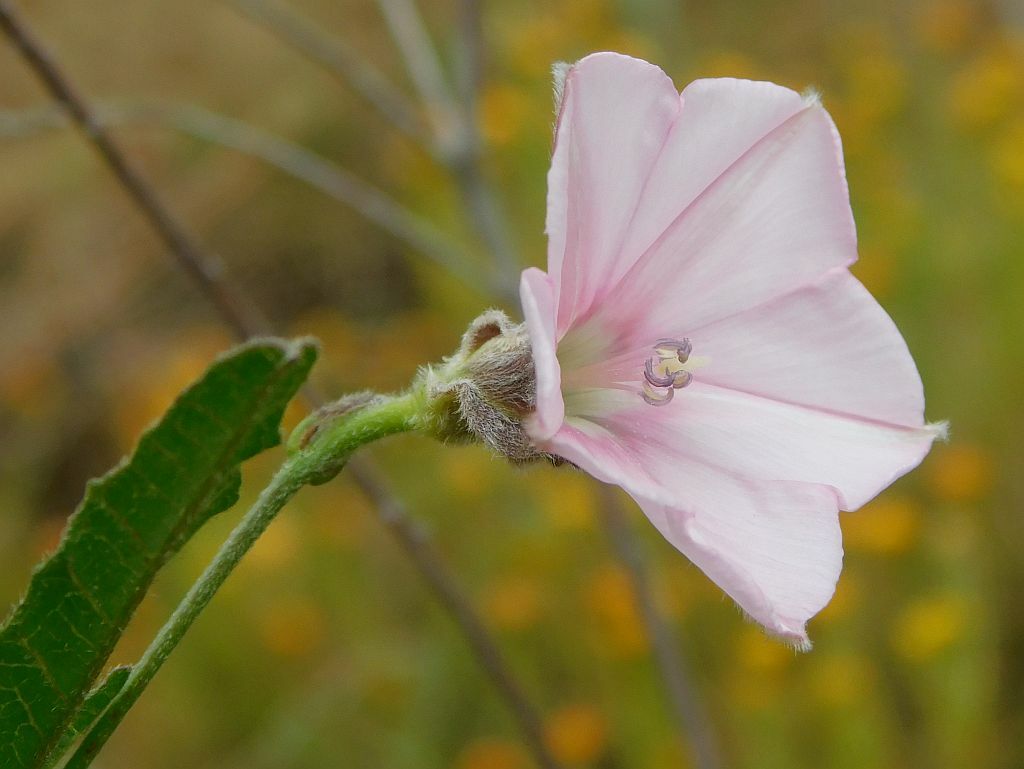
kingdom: Plantae
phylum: Tracheophyta
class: Magnoliopsida
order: Solanales
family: Convolvulaceae
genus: Convolvulus
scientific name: Convolvulus capensis
